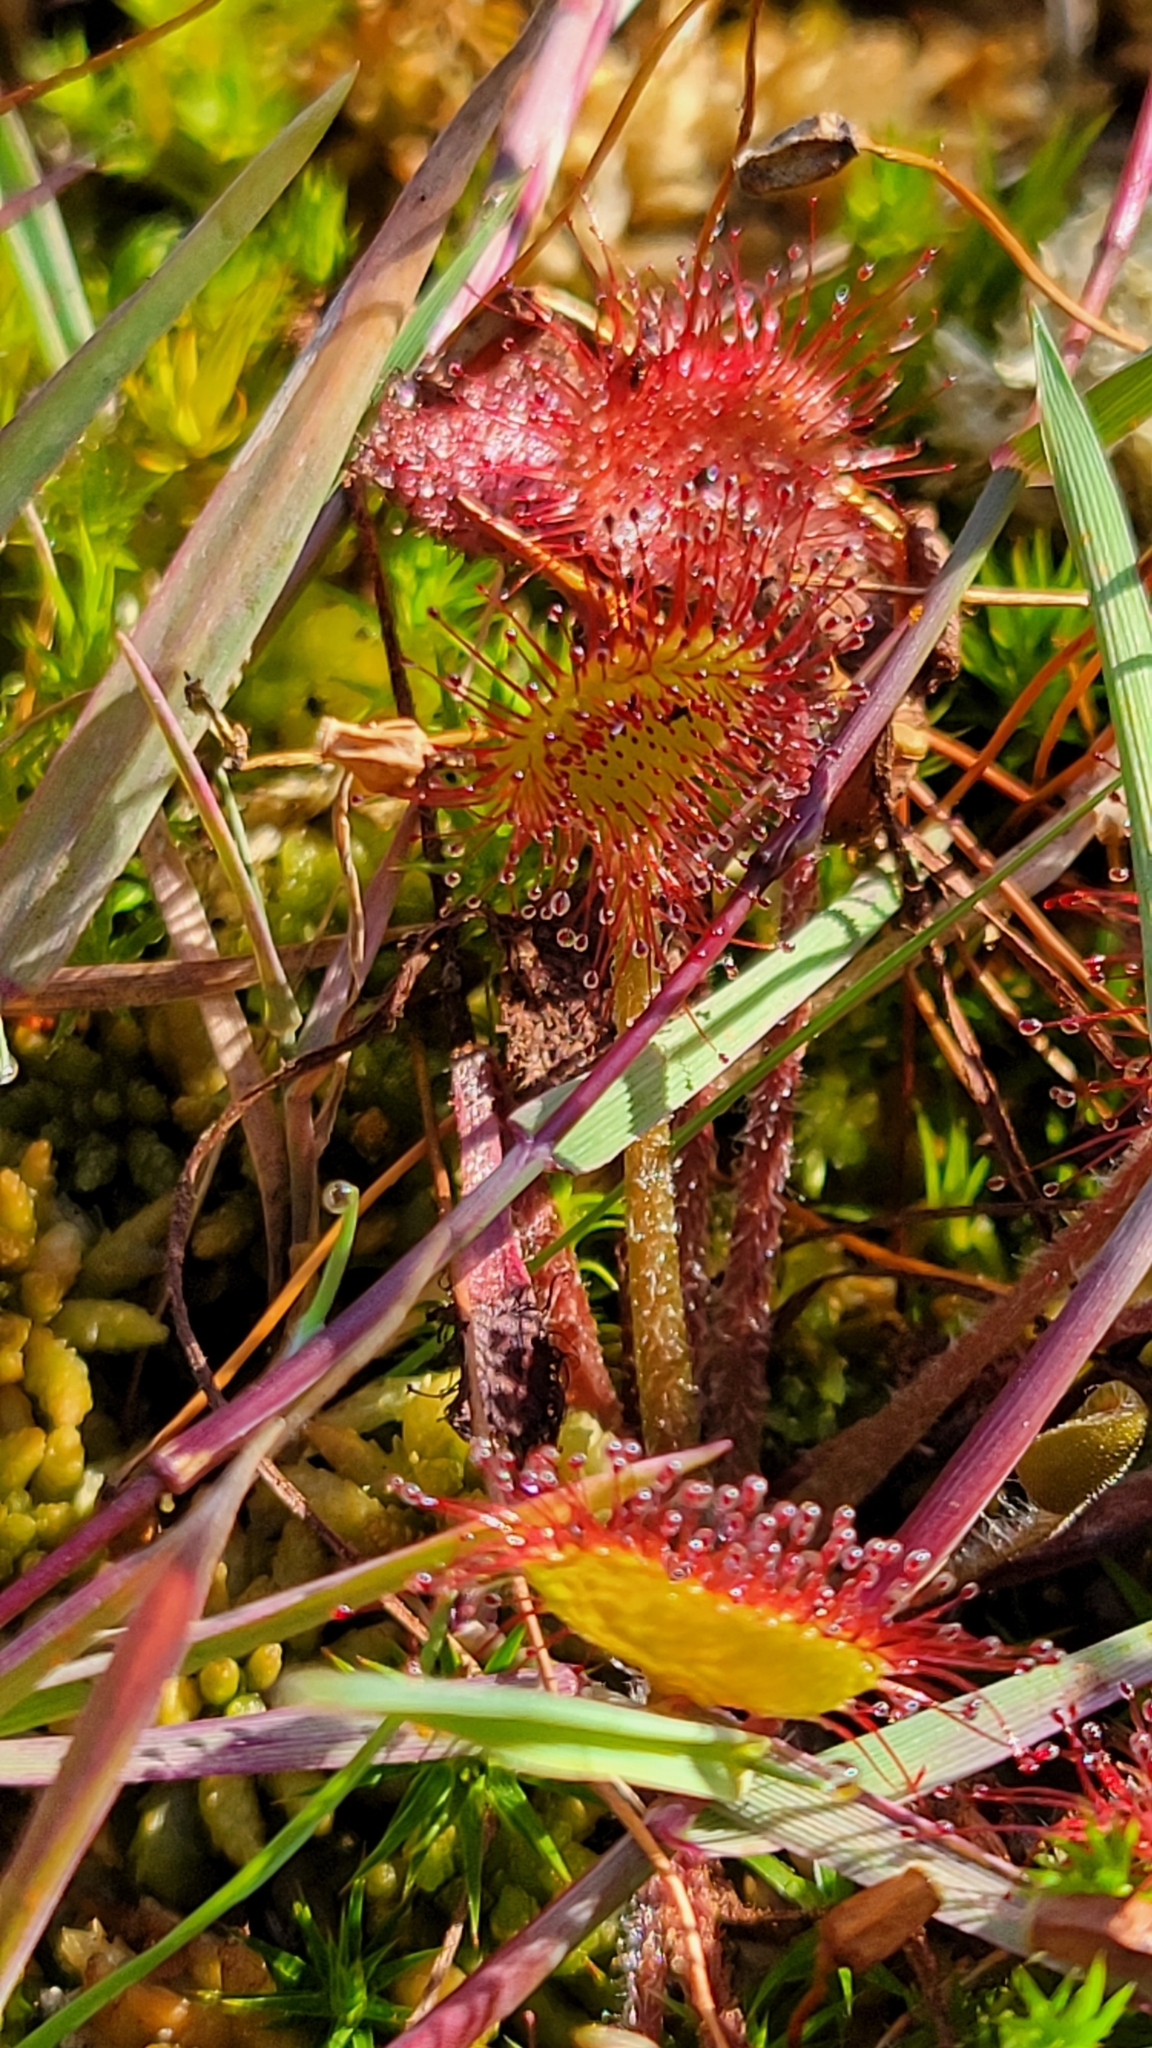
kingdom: Plantae
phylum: Tracheophyta
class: Magnoliopsida
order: Caryophyllales
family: Droseraceae
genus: Drosera
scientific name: Drosera rotundifolia
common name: Round-leaved sundew
